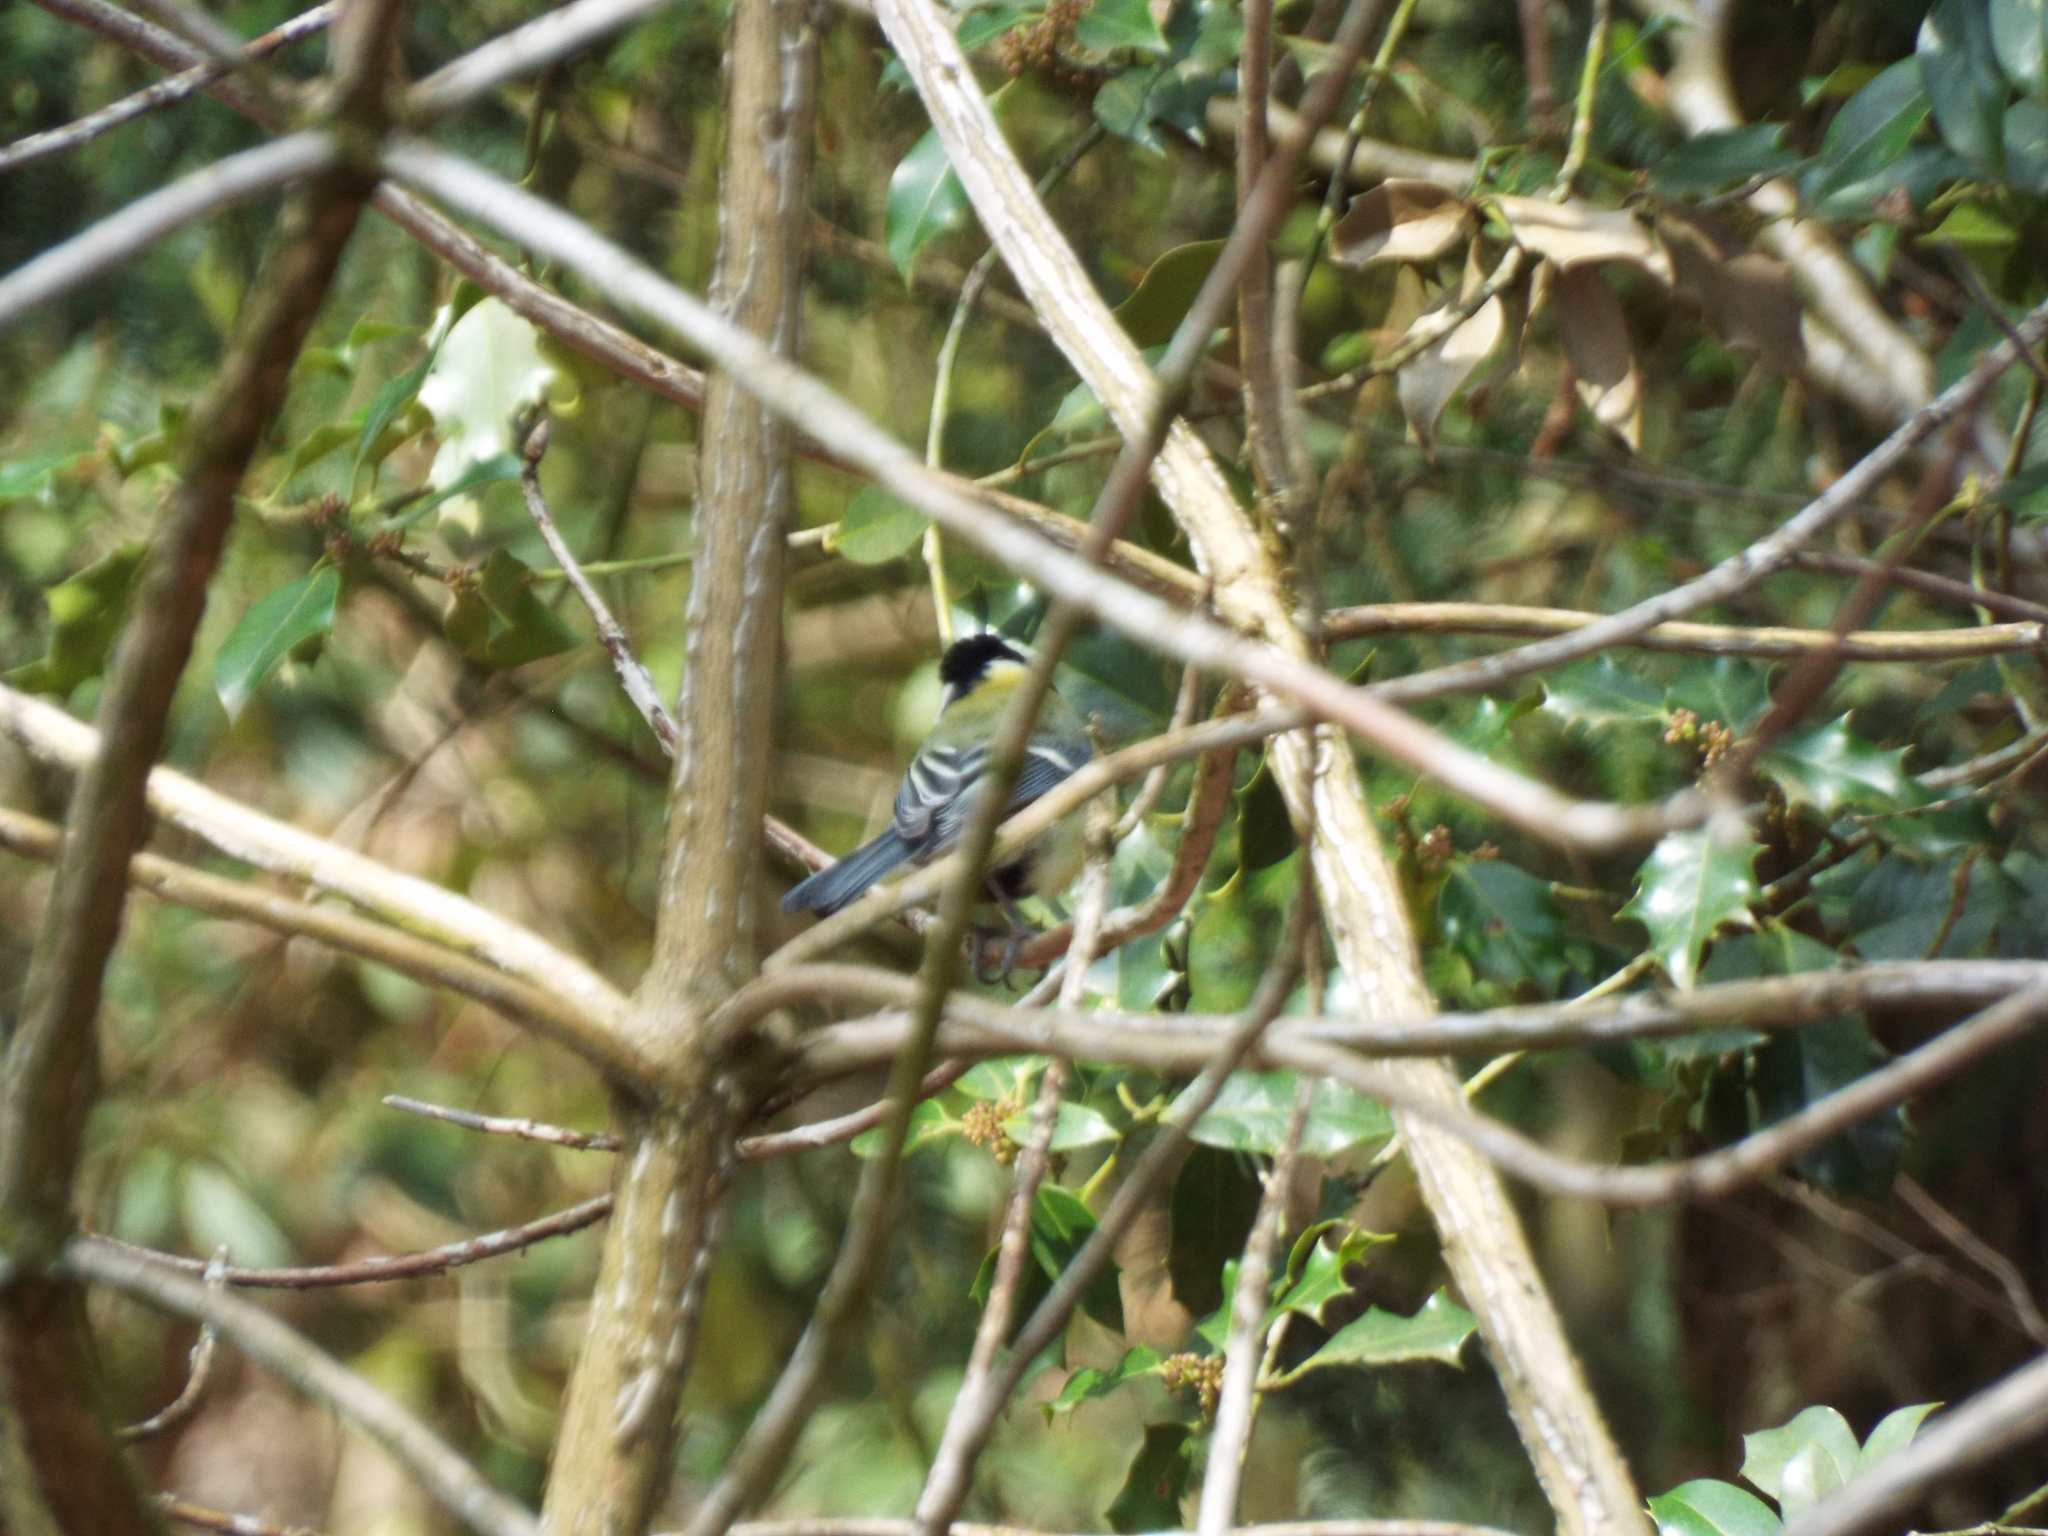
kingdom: Animalia
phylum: Chordata
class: Aves
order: Passeriformes
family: Paridae
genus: Parus
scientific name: Parus major
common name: Great tit
